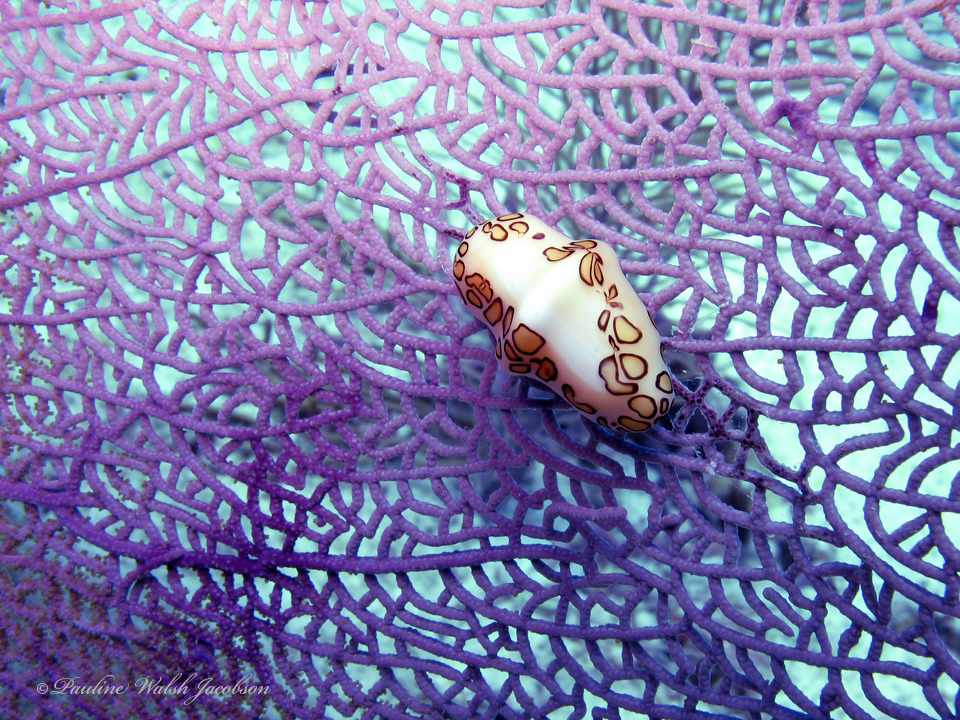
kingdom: Animalia
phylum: Mollusca
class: Gastropoda
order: Littorinimorpha
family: Ovulidae
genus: Cyphoma
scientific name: Cyphoma gibbosum
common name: Flamingo tongue
